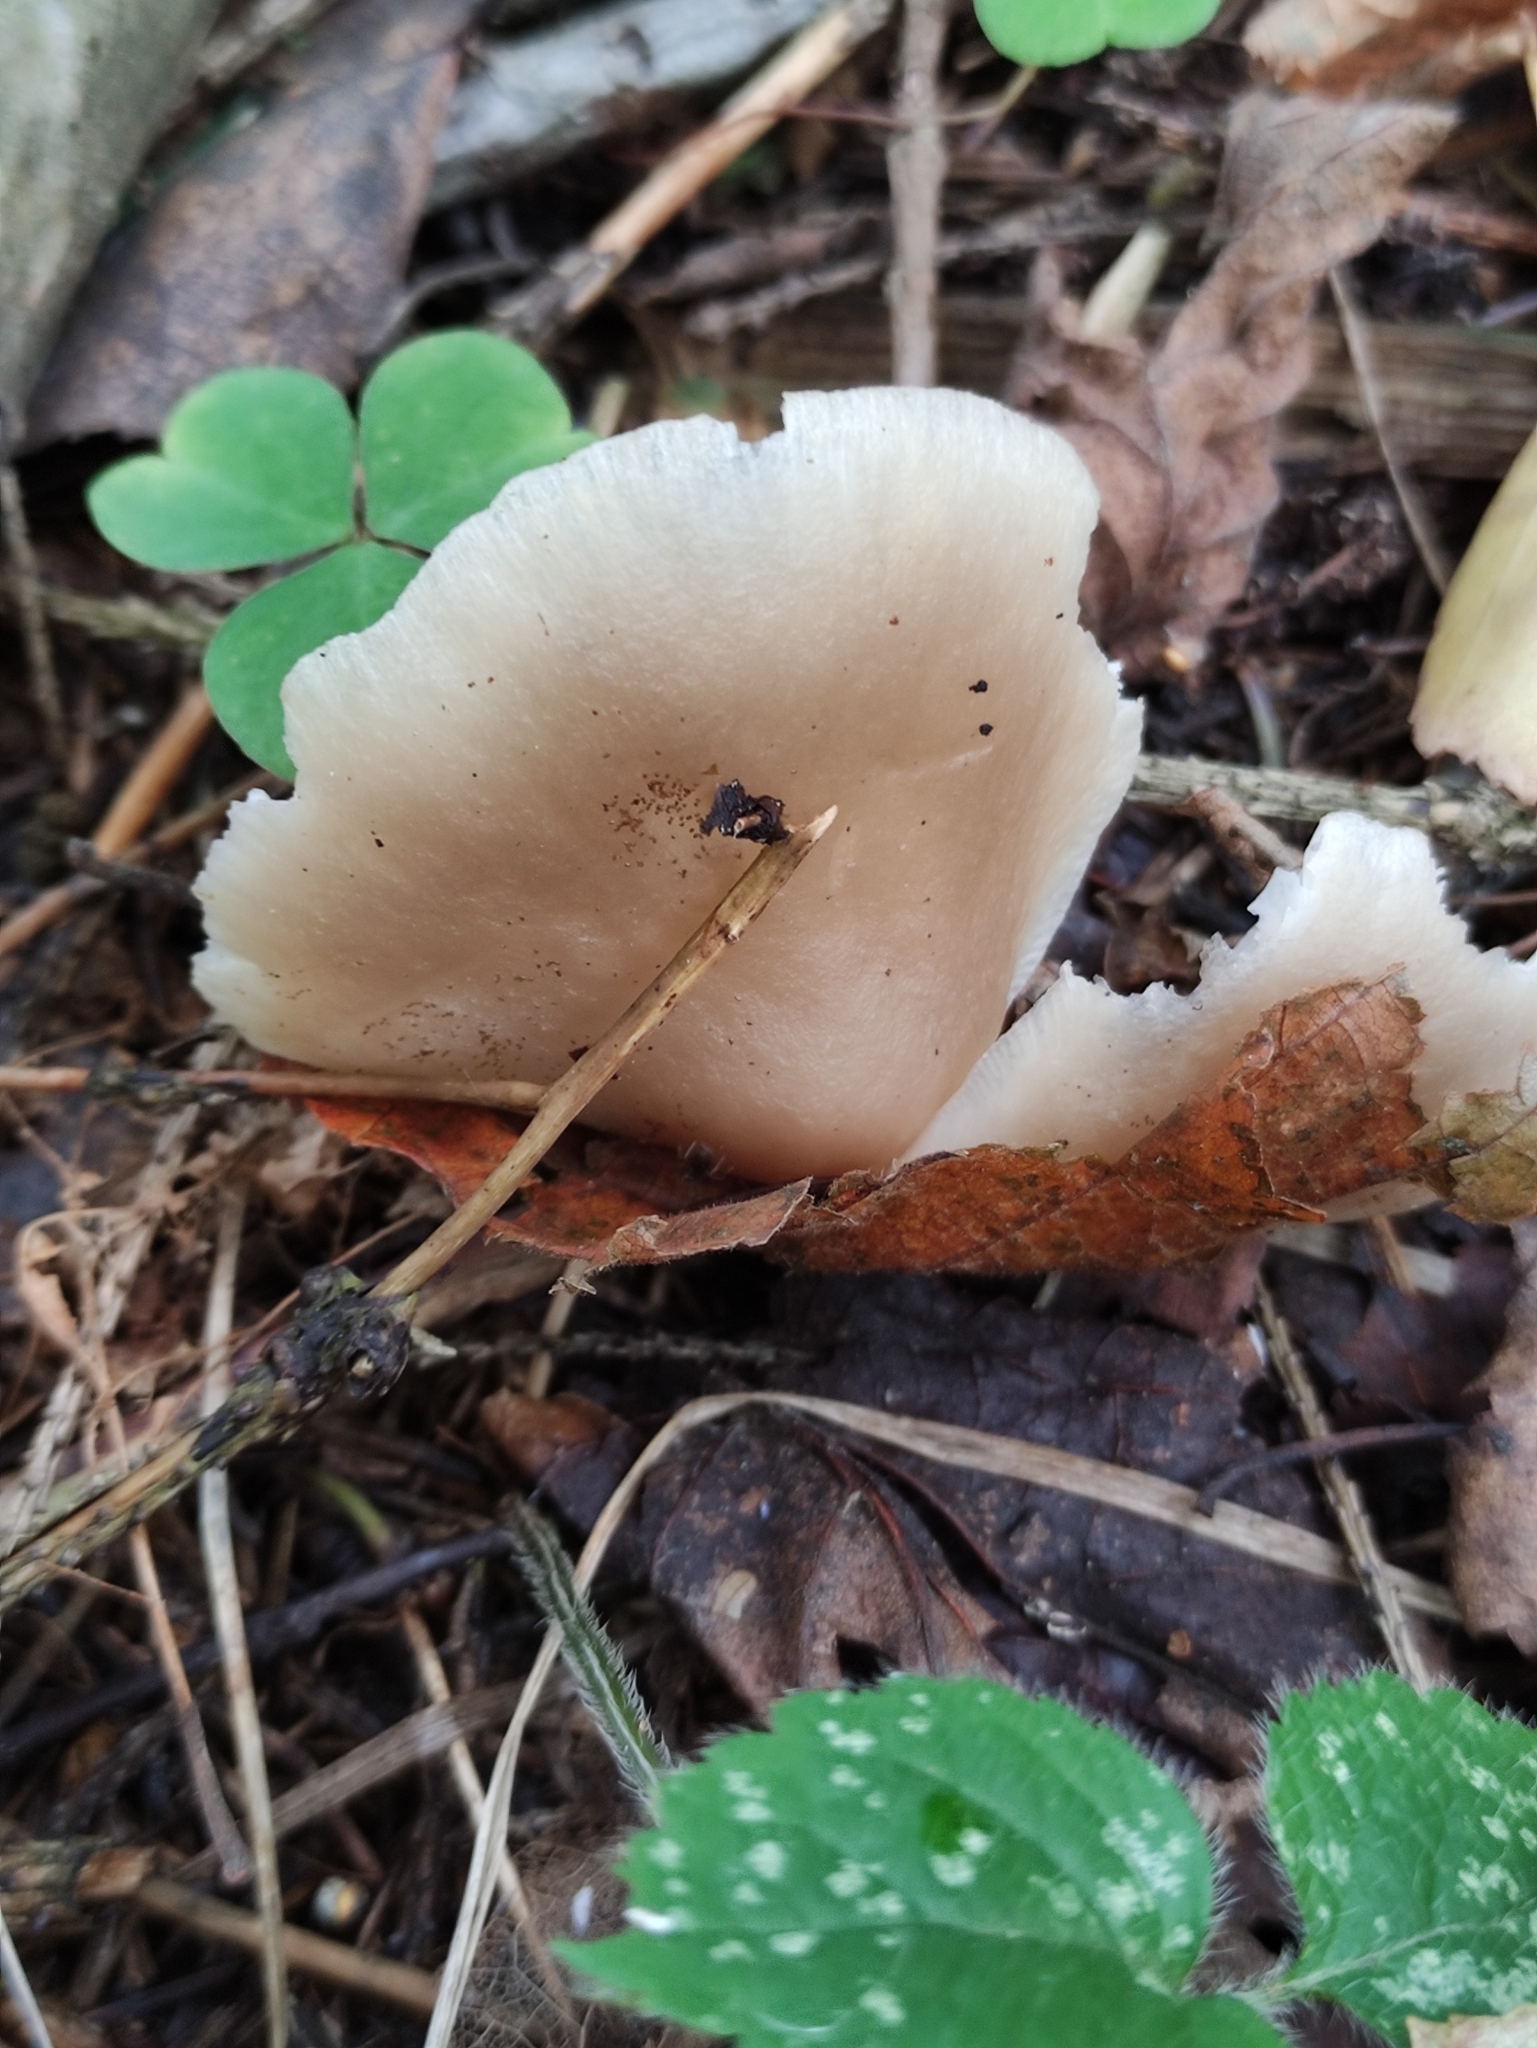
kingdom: Fungi
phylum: Basidiomycota
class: Agaricomycetes
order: Agaricales
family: Pleurotaceae
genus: Pleurotus
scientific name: Pleurotus ostreatus
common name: Oyster mushroom
